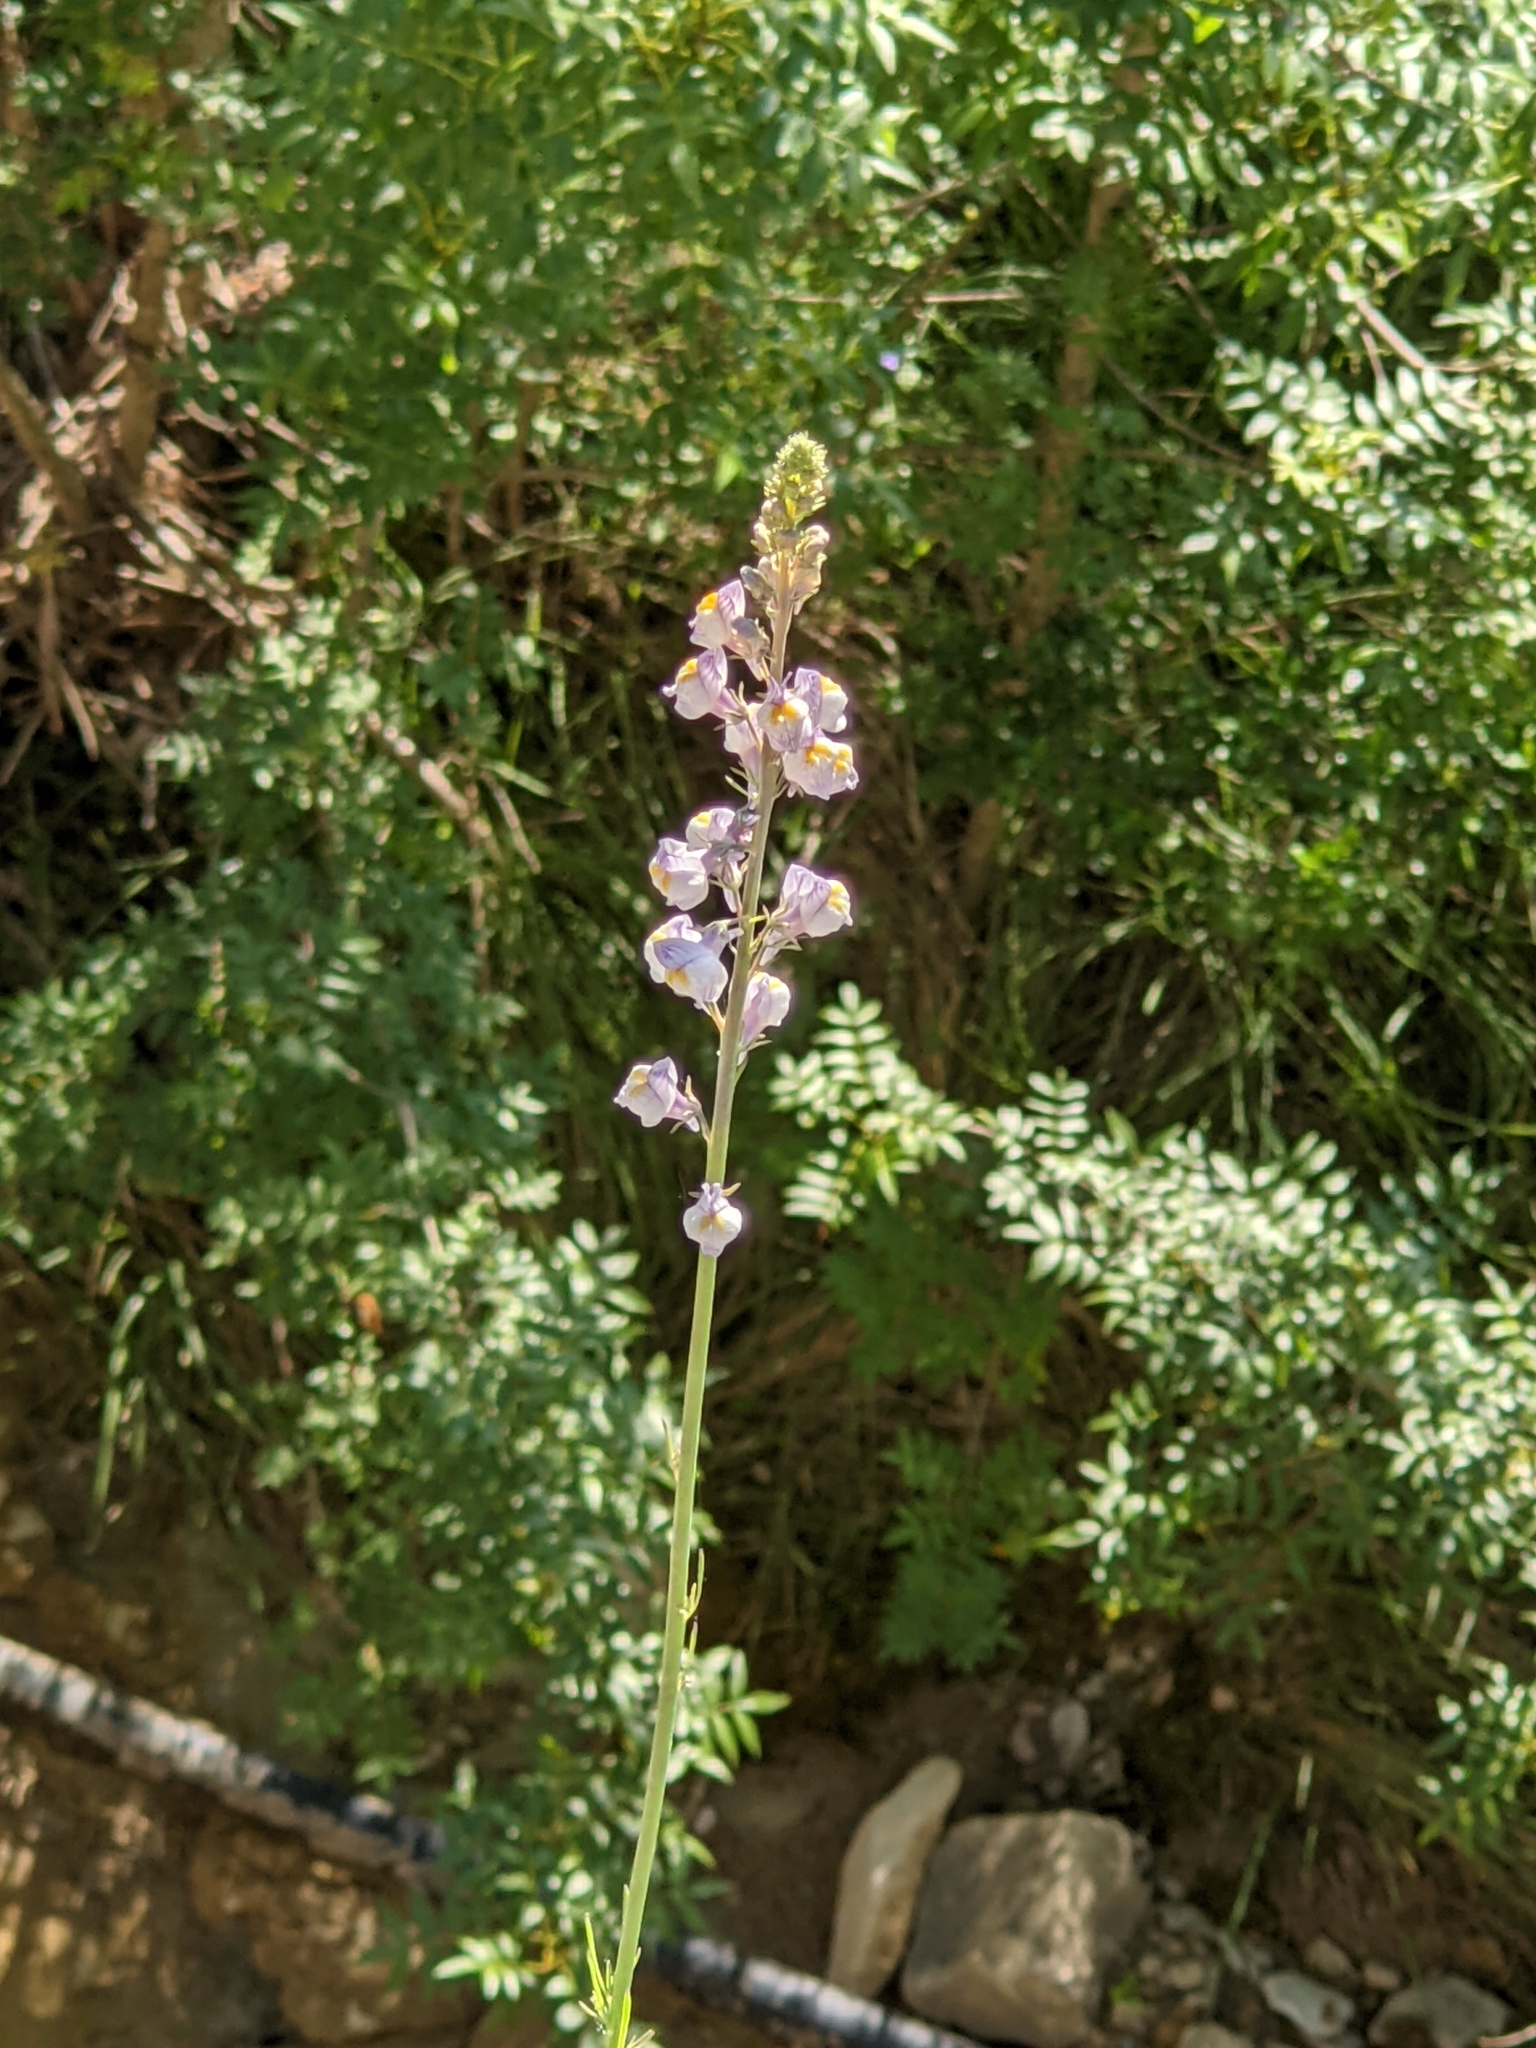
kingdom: Plantae
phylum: Tracheophyta
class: Magnoliopsida
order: Lamiales
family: Plantaginaceae
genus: Linaria
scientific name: Linaria repens
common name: Pale toadflax
